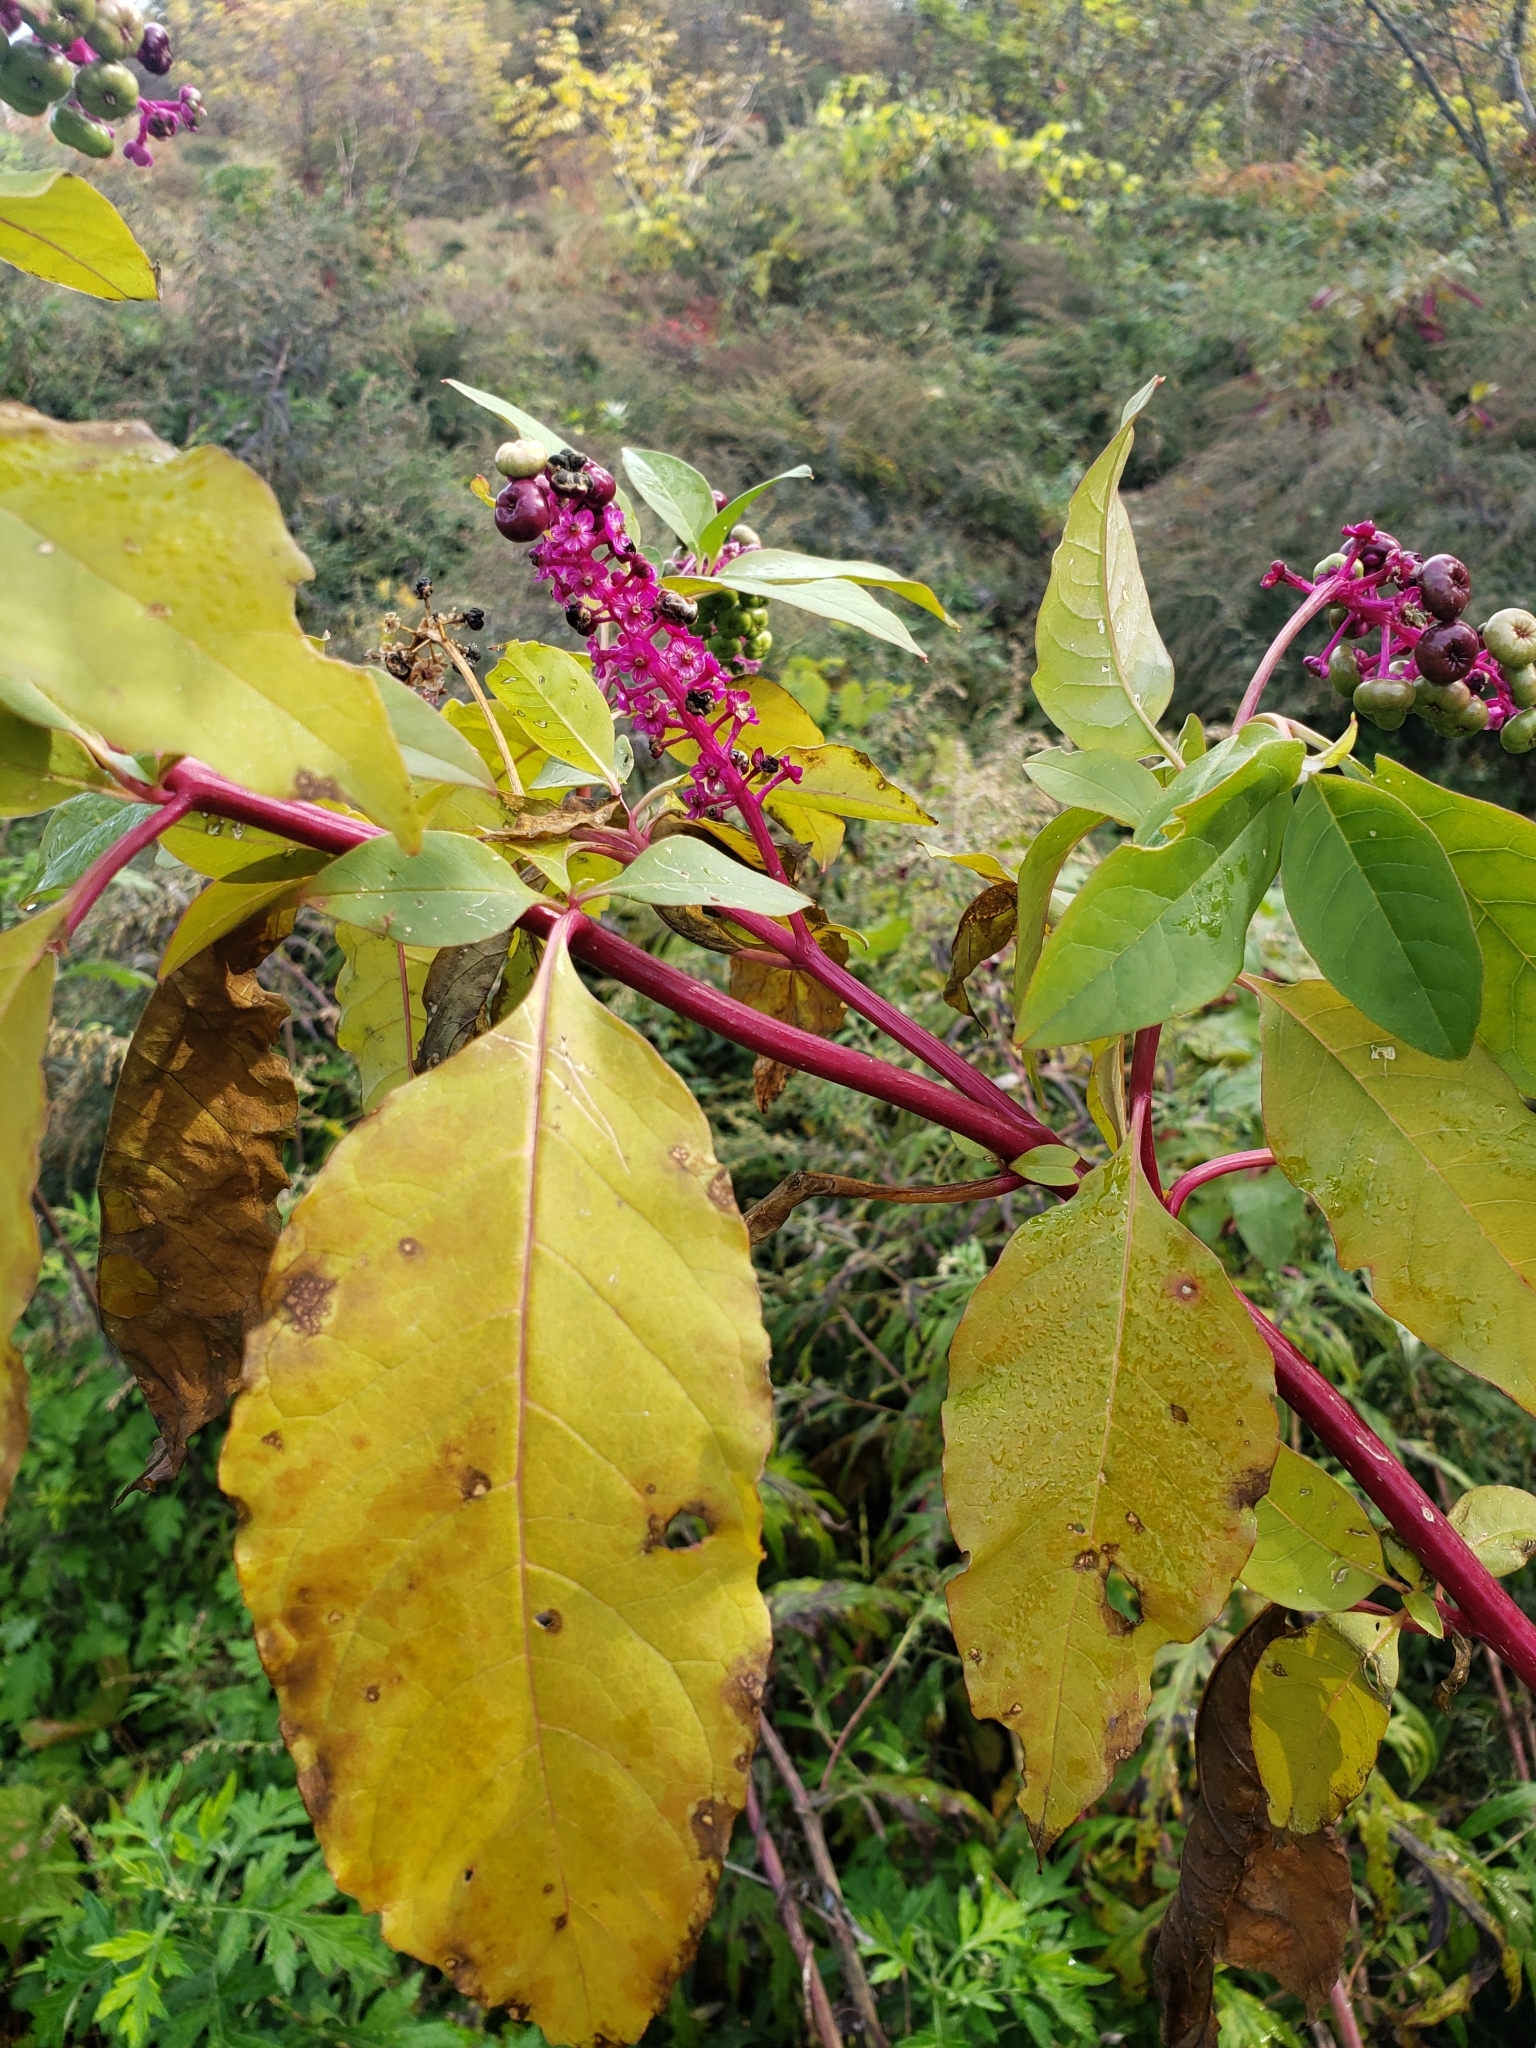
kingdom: Plantae
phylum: Tracheophyta
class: Magnoliopsida
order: Caryophyllales
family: Phytolaccaceae
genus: Phytolacca
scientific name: Phytolacca americana
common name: American pokeweed
